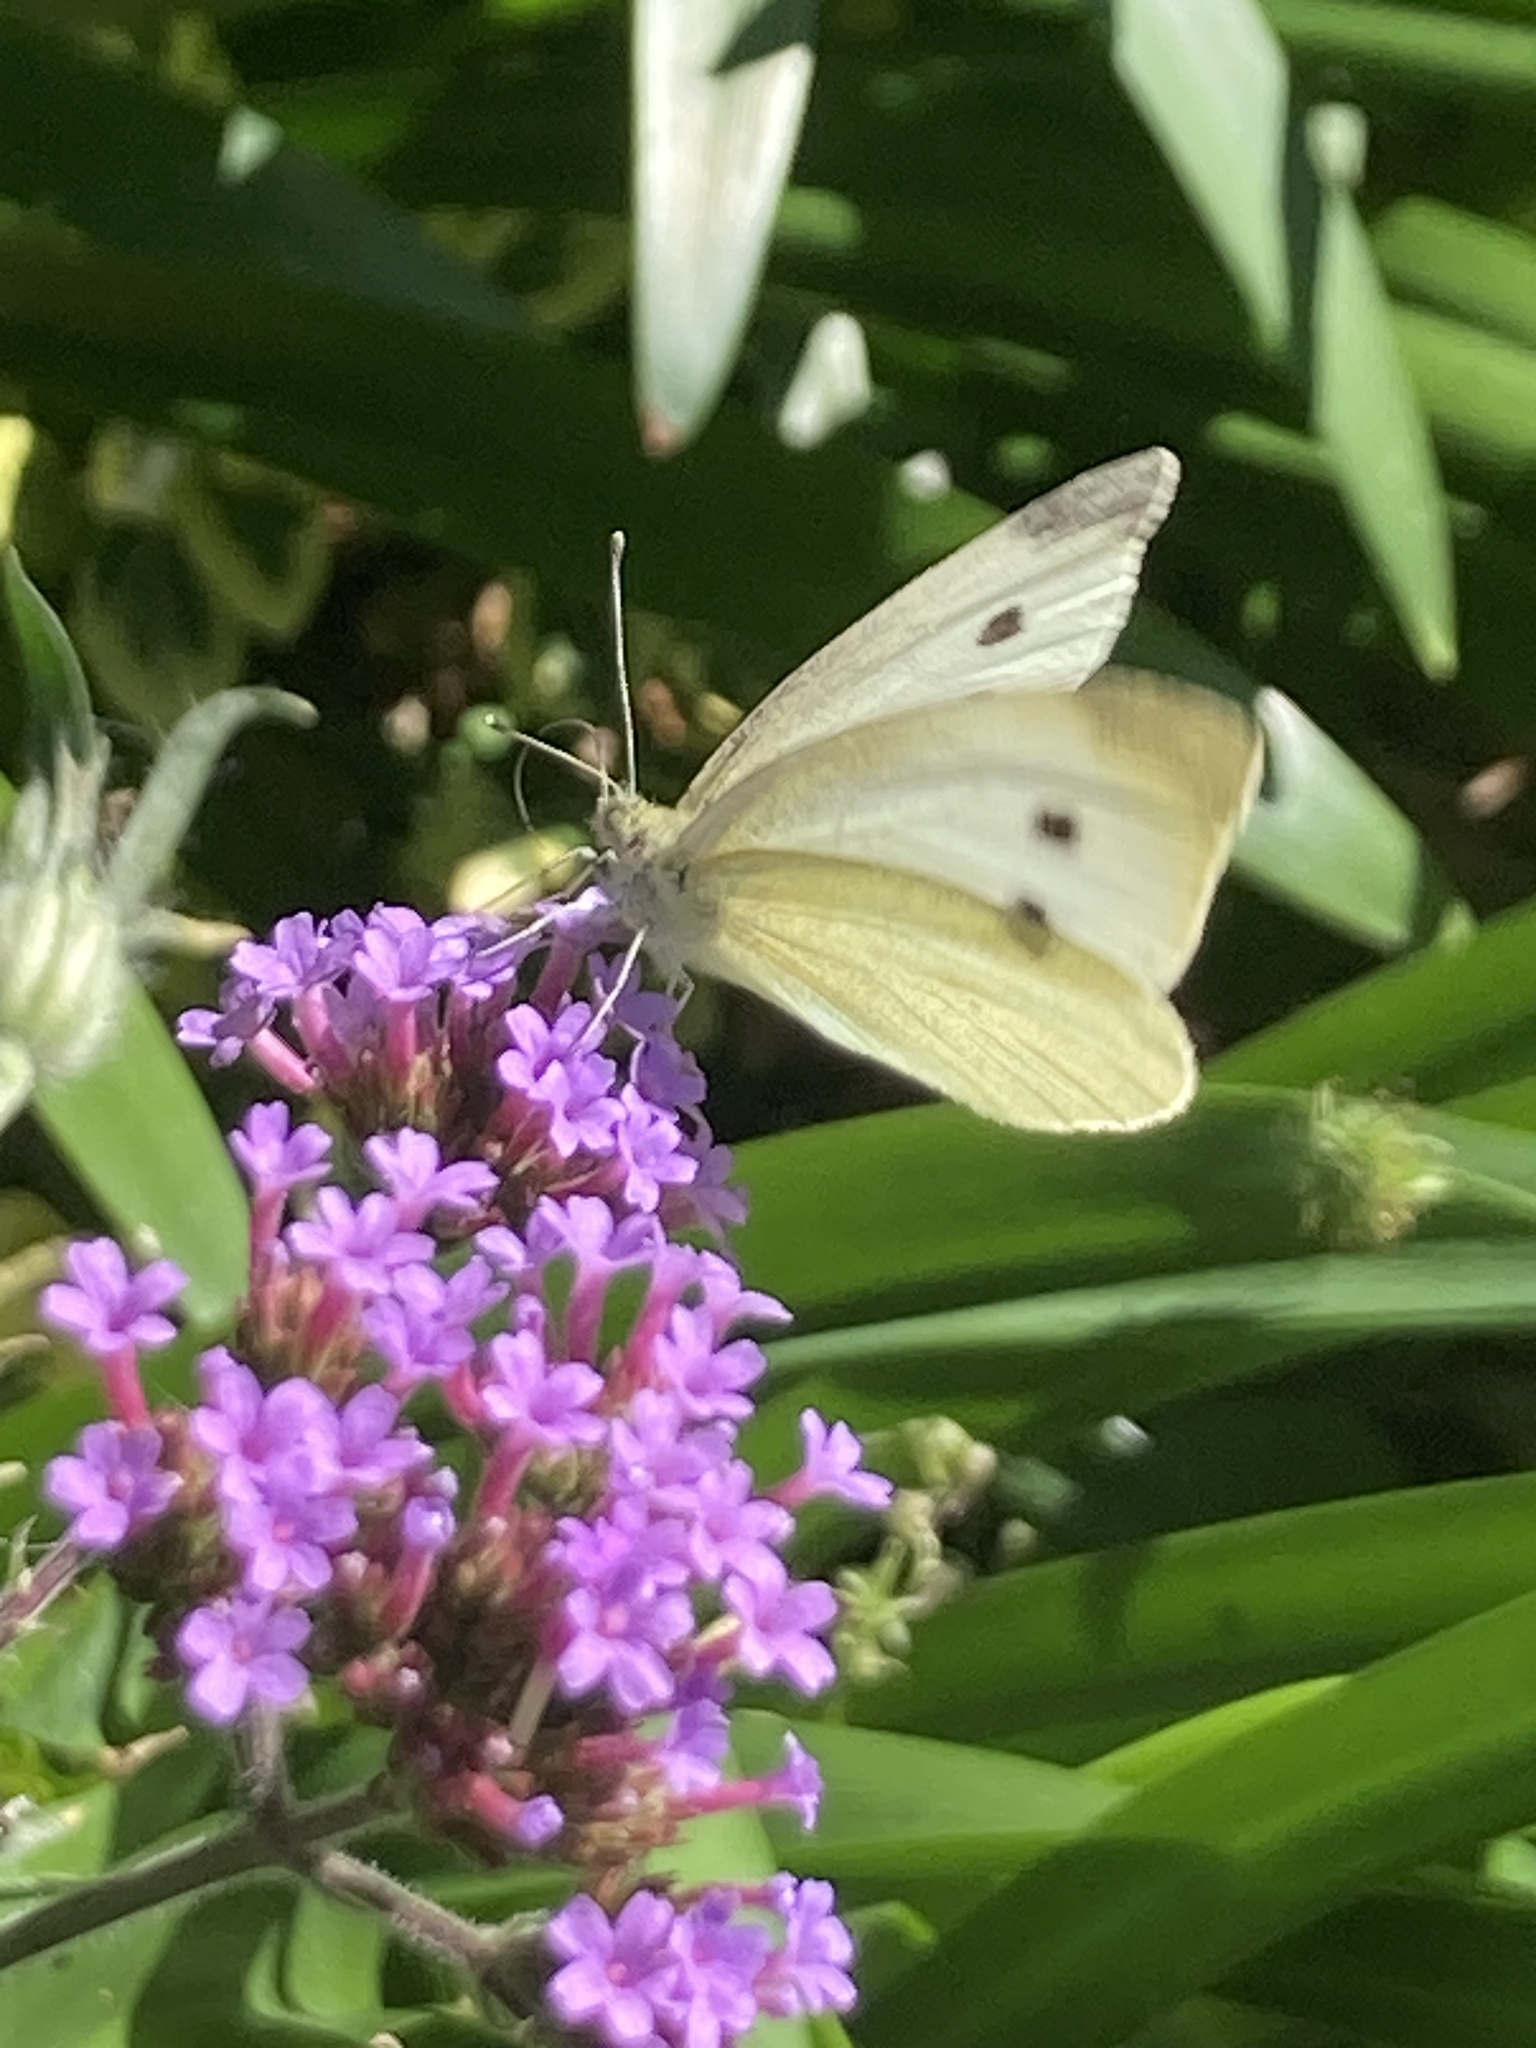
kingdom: Animalia
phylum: Arthropoda
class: Insecta
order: Lepidoptera
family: Pieridae
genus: Pieris
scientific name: Pieris rapae
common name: Small white
